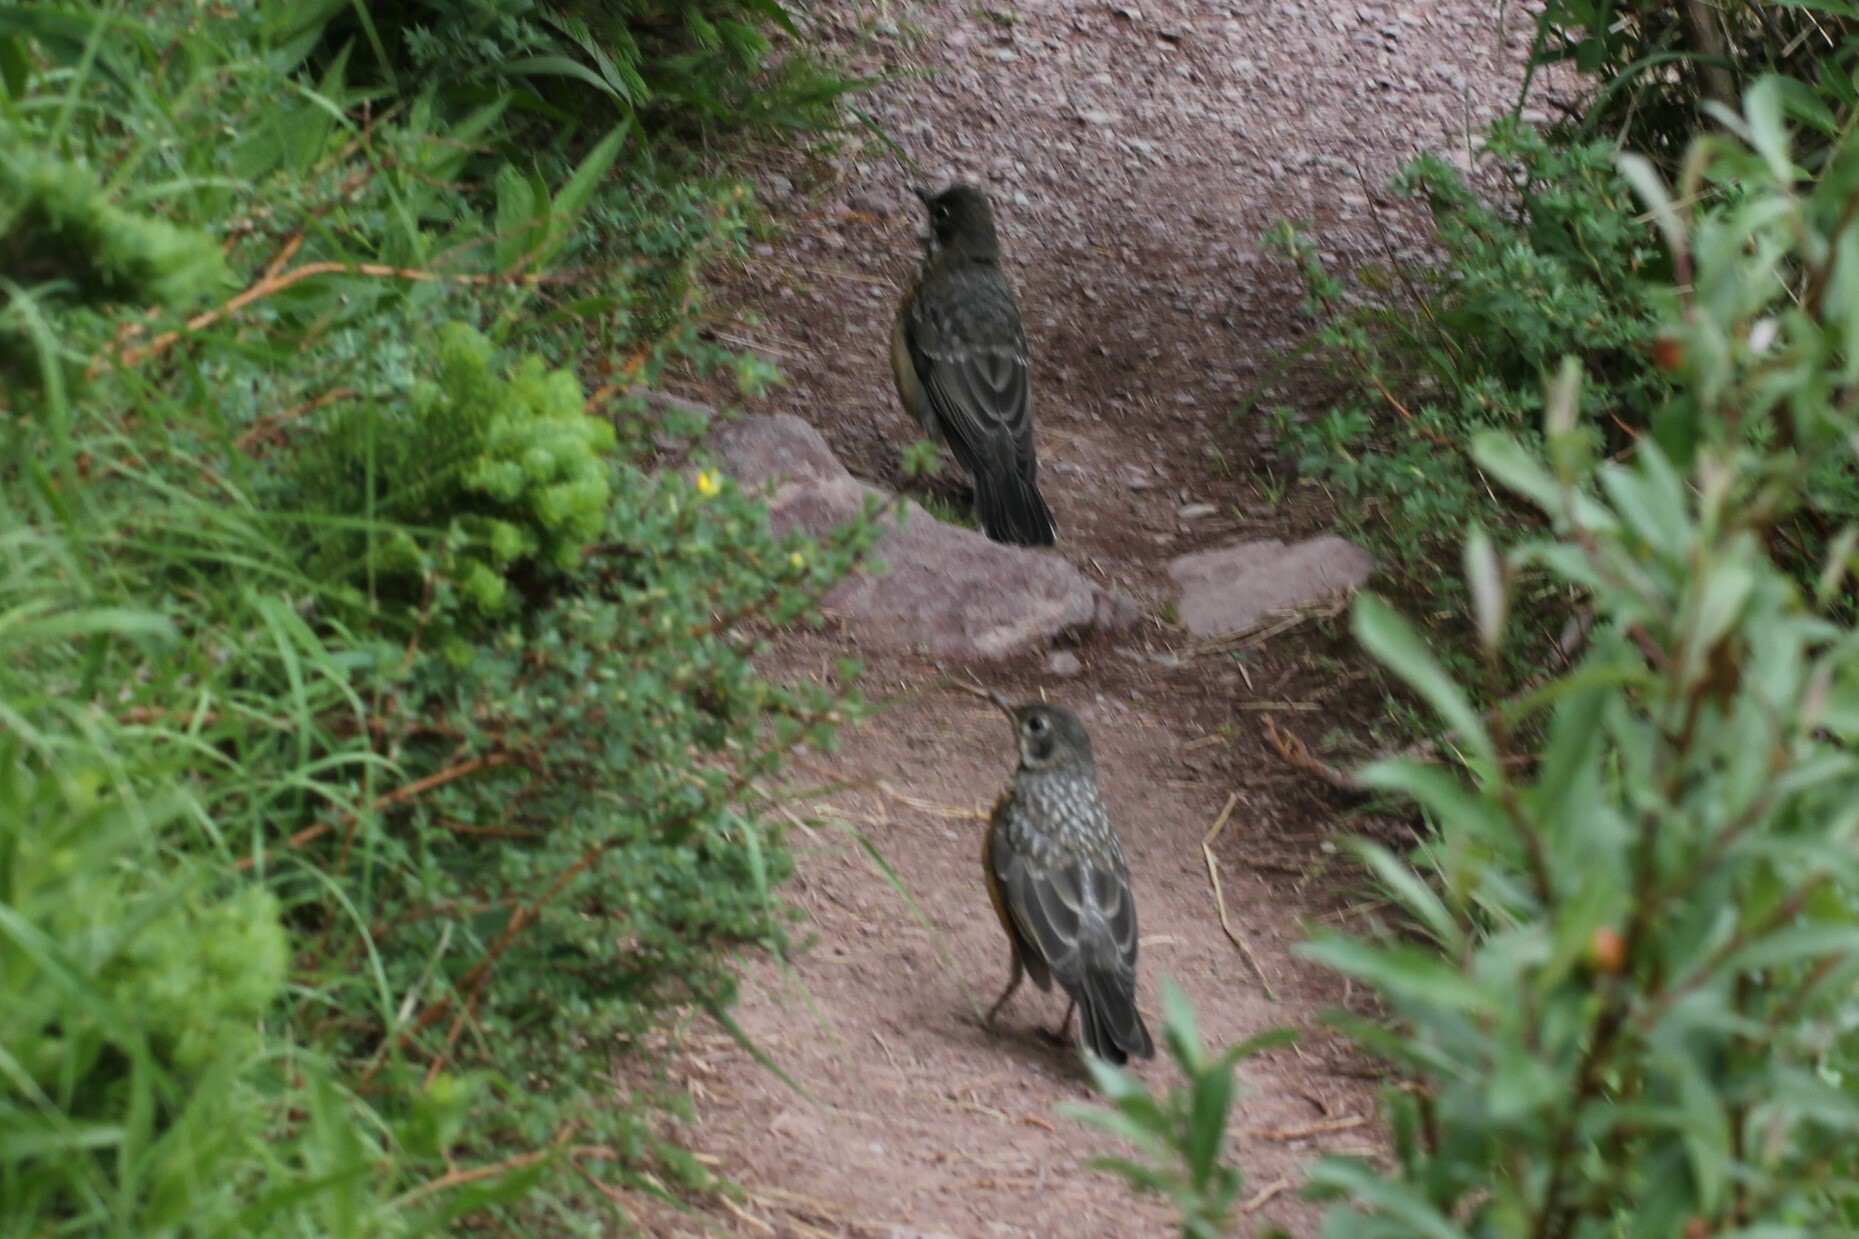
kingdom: Animalia
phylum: Chordata
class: Aves
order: Passeriformes
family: Turdidae
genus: Turdus
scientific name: Turdus migratorius
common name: American robin
